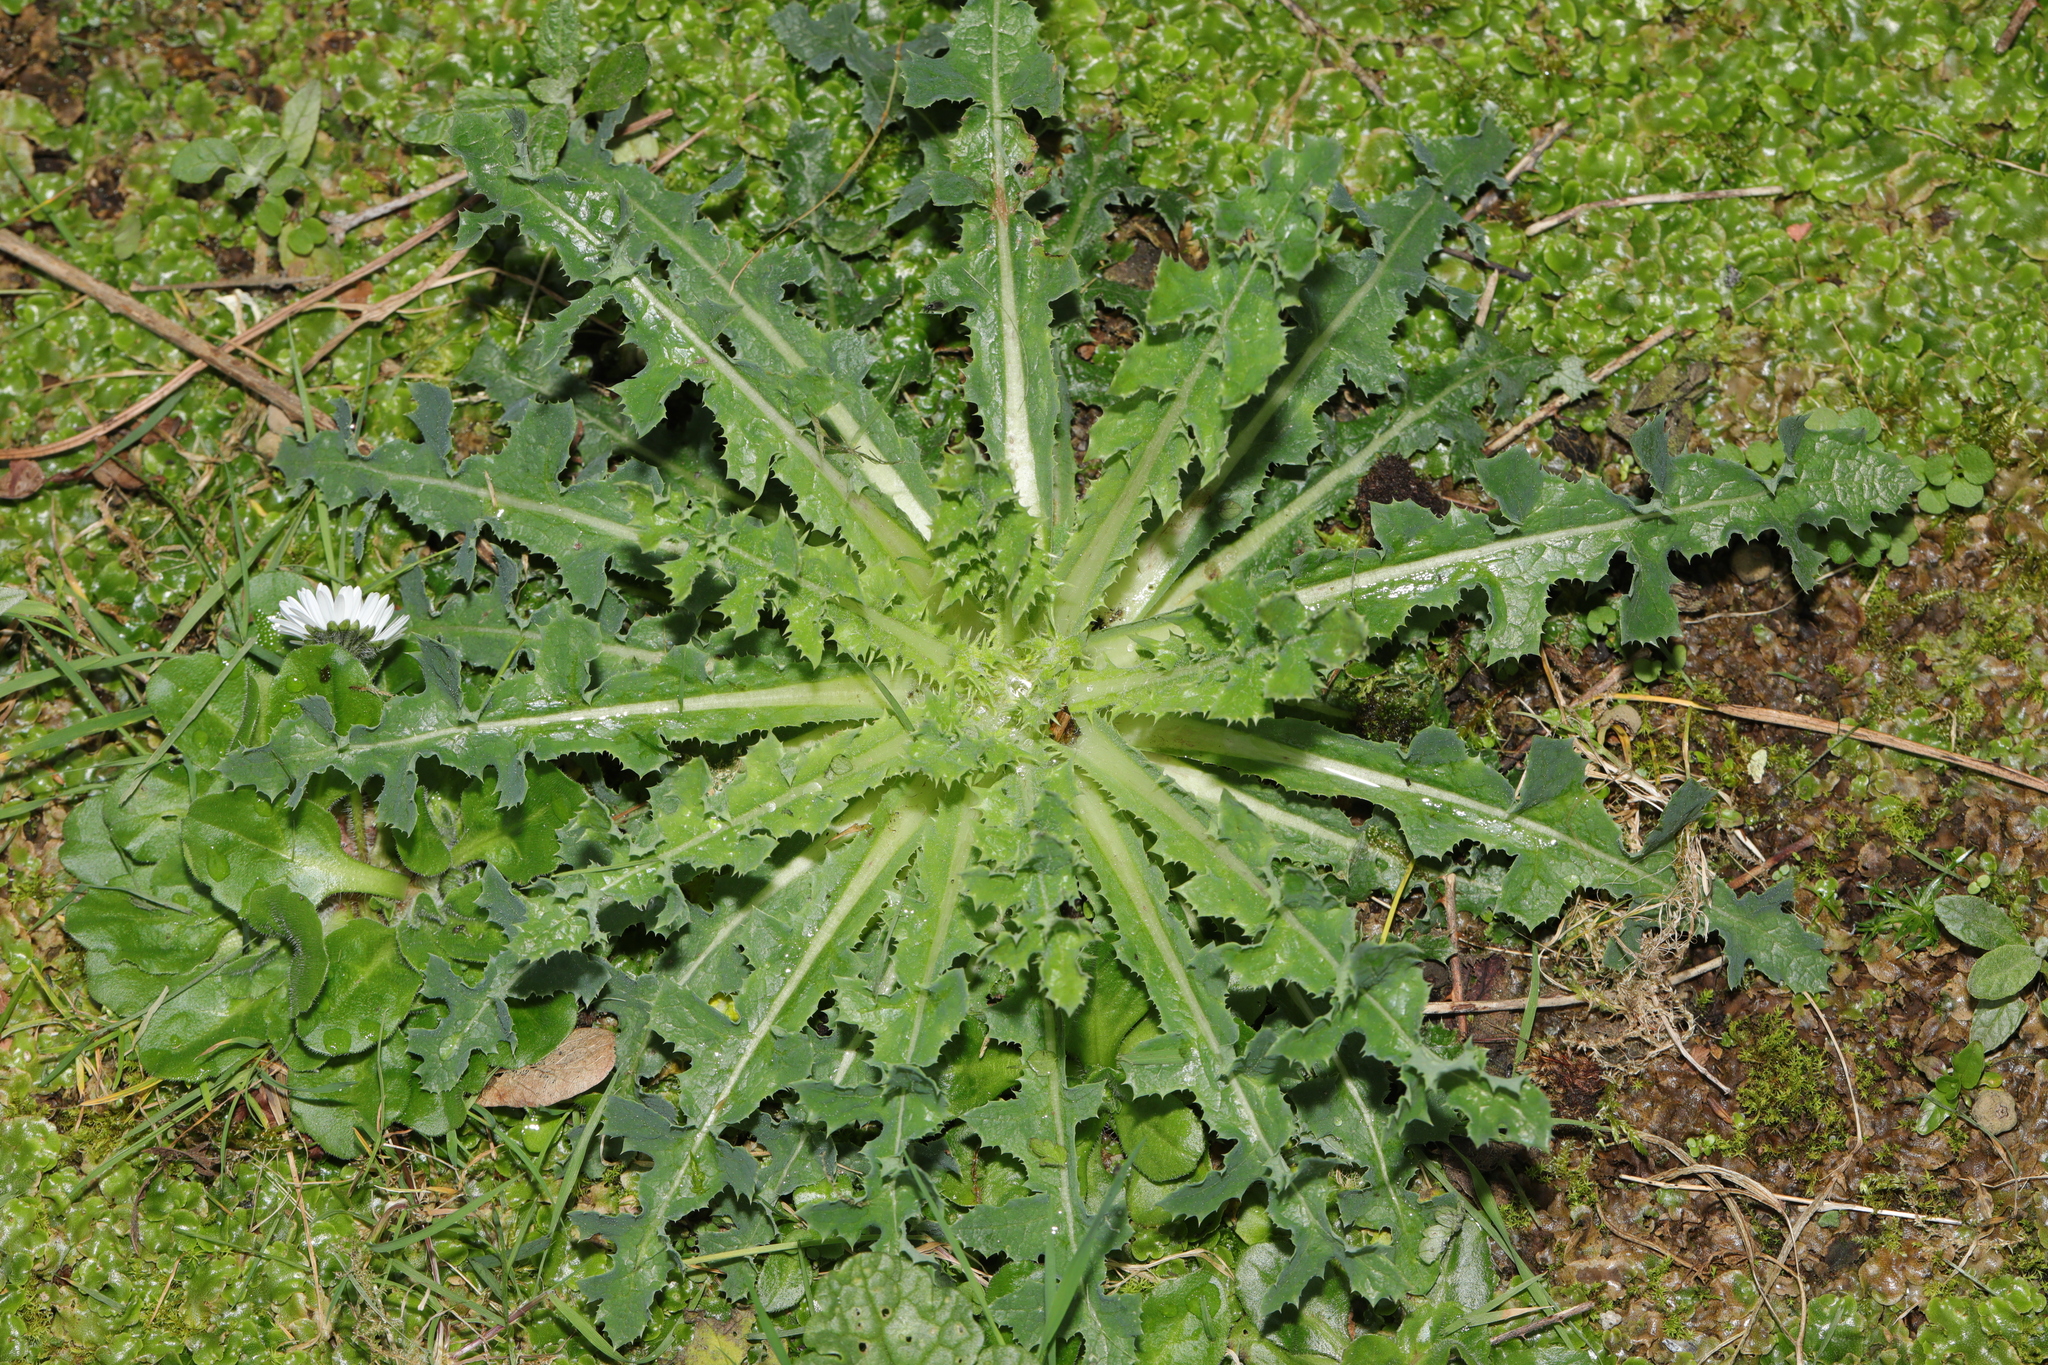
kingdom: Plantae
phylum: Tracheophyta
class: Magnoliopsida
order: Asterales
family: Asteraceae
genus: Sonchus
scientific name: Sonchus asper
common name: Prickly sow-thistle
